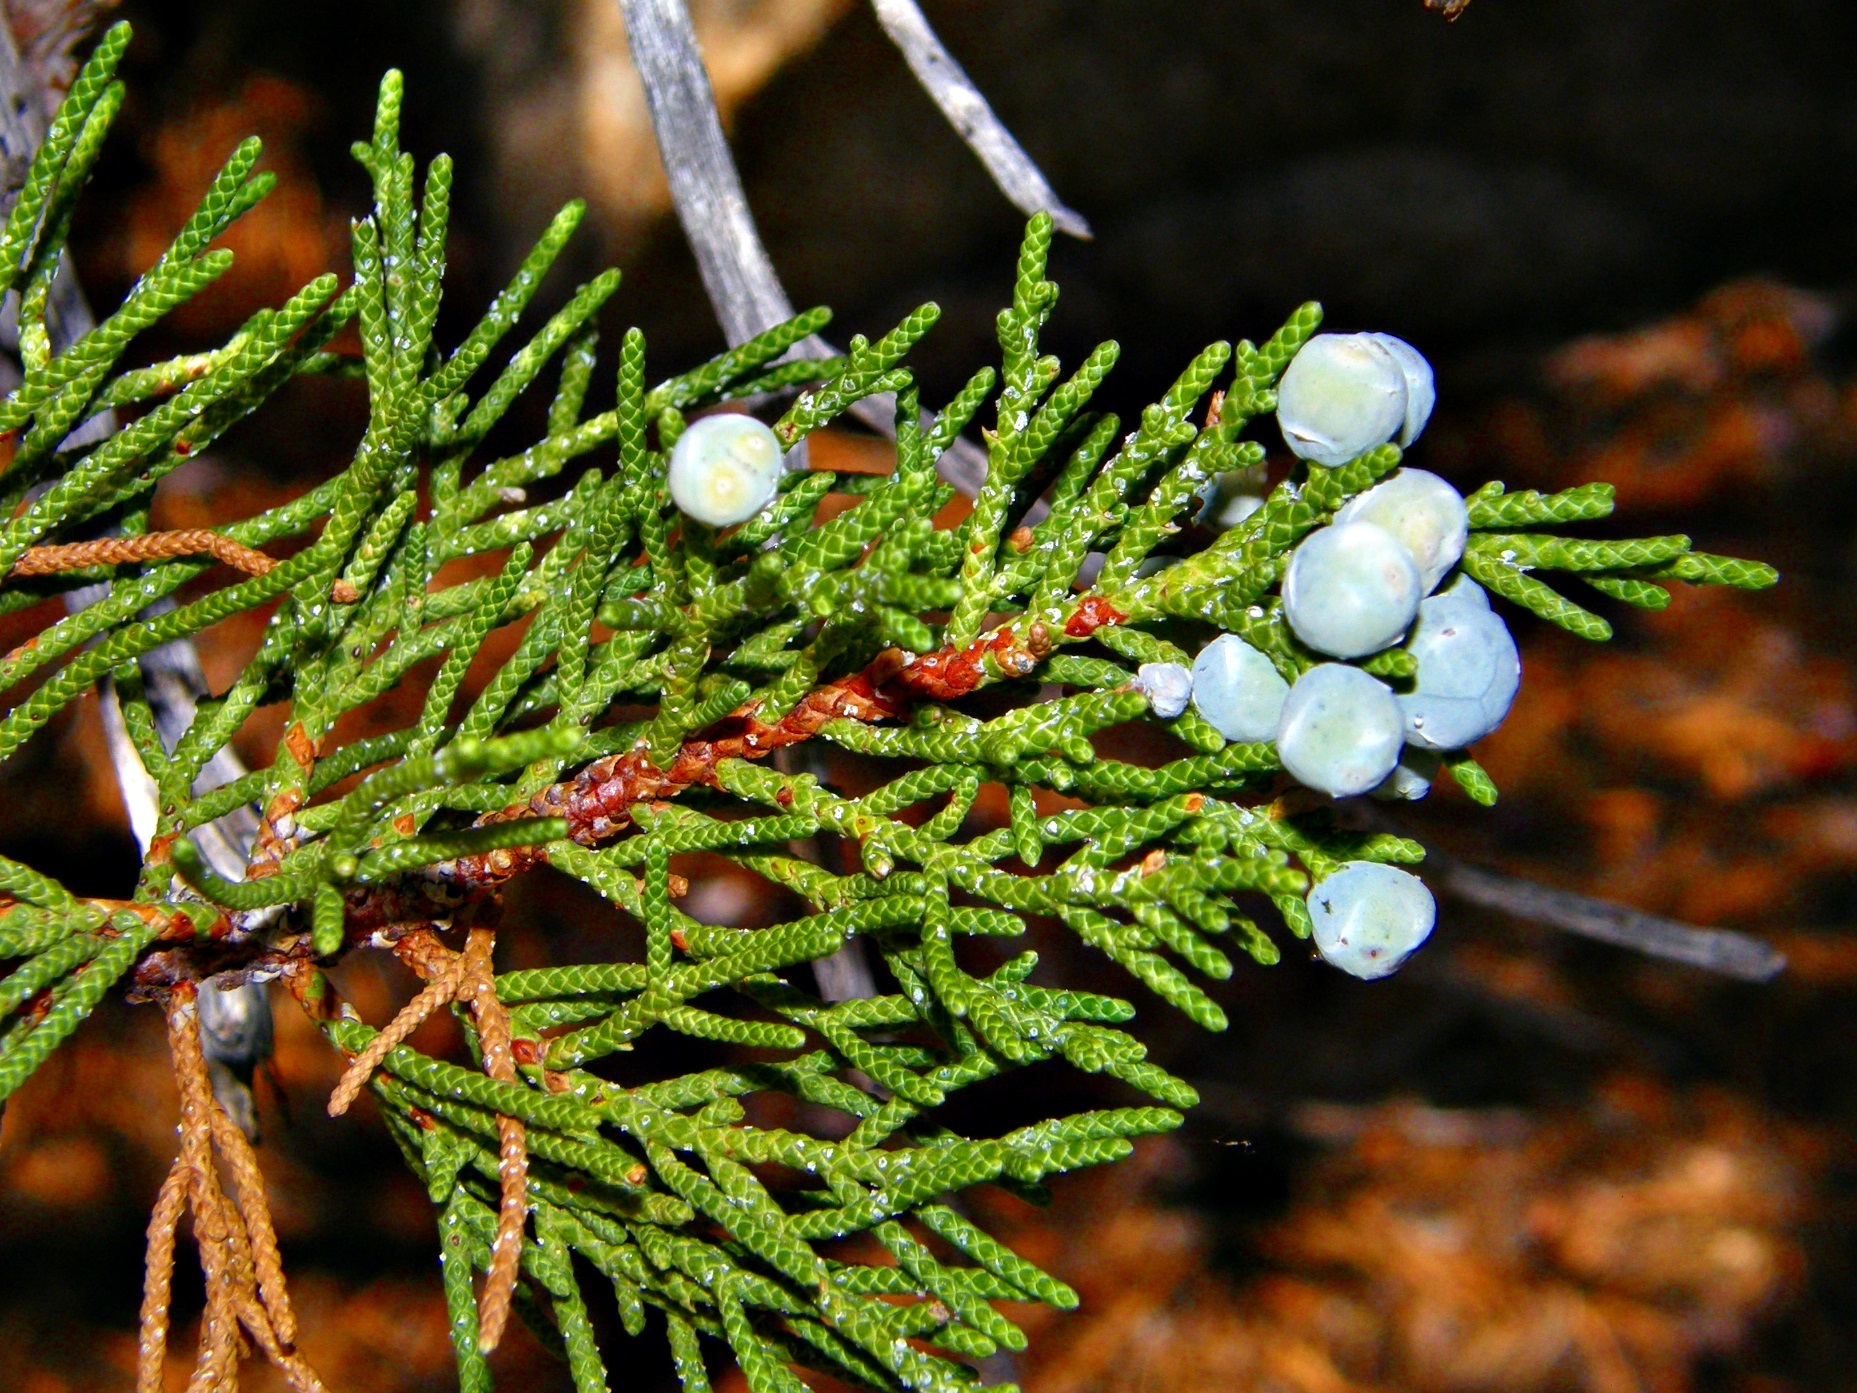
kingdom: Plantae
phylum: Tracheophyta
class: Pinopsida
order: Pinales
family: Cupressaceae
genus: Juniperus
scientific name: Juniperus occidentalis
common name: Western juniper
